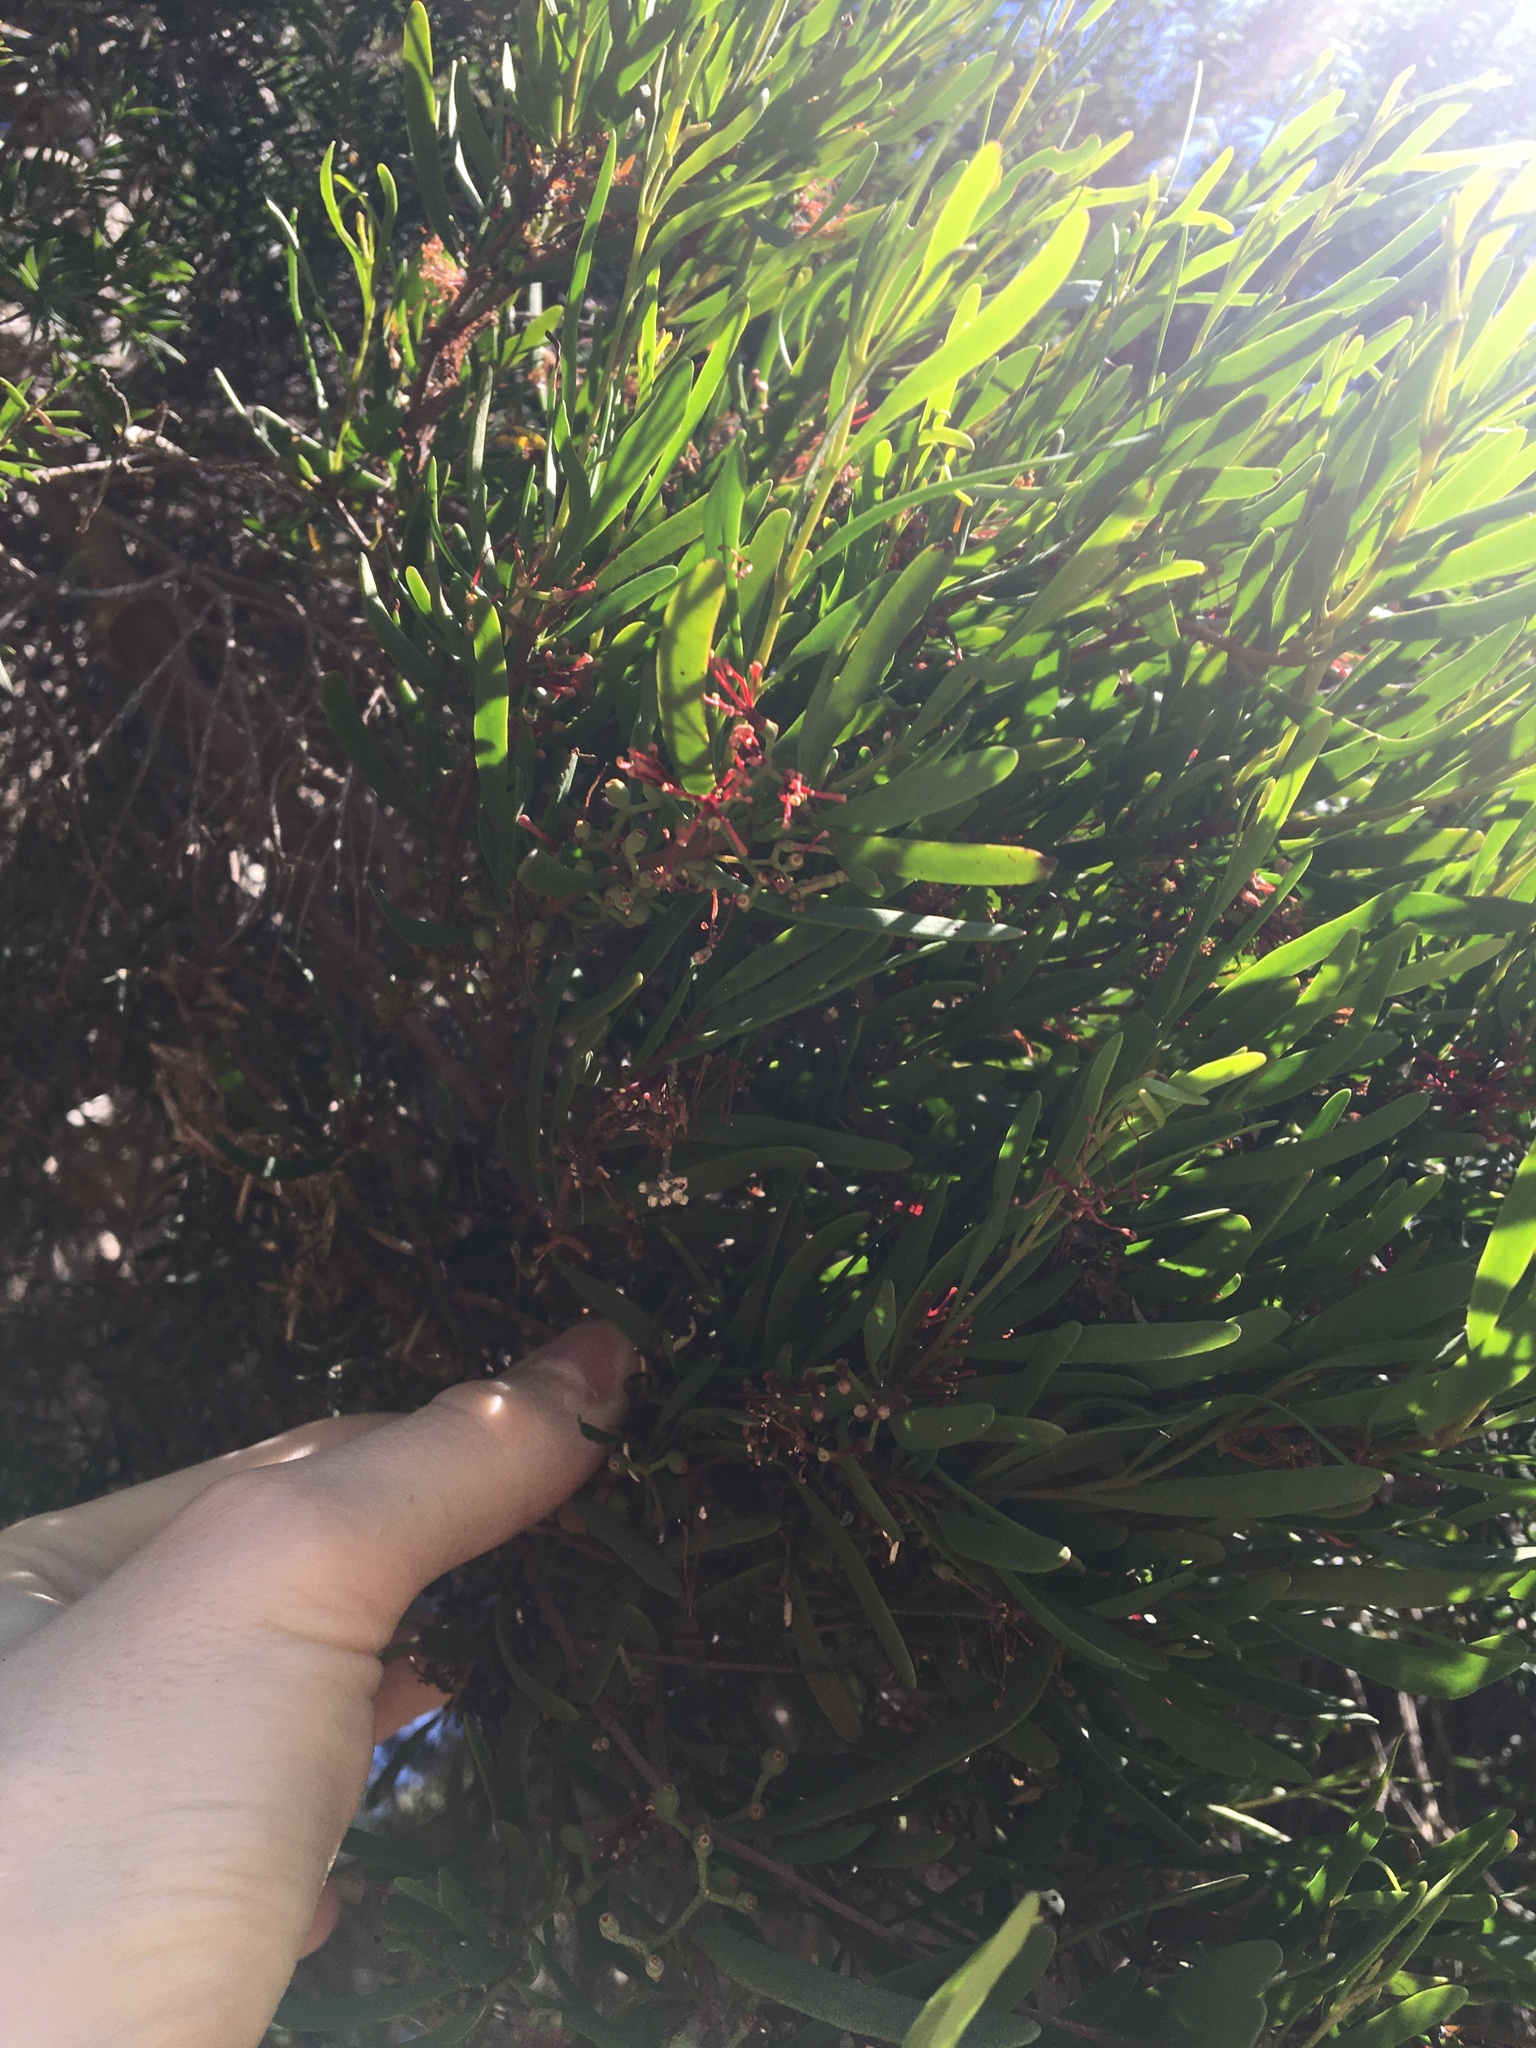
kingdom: Plantae
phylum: Tracheophyta
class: Magnoliopsida
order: Santalales
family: Loranthaceae
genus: Amyema
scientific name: Amyema gaudichaudii
